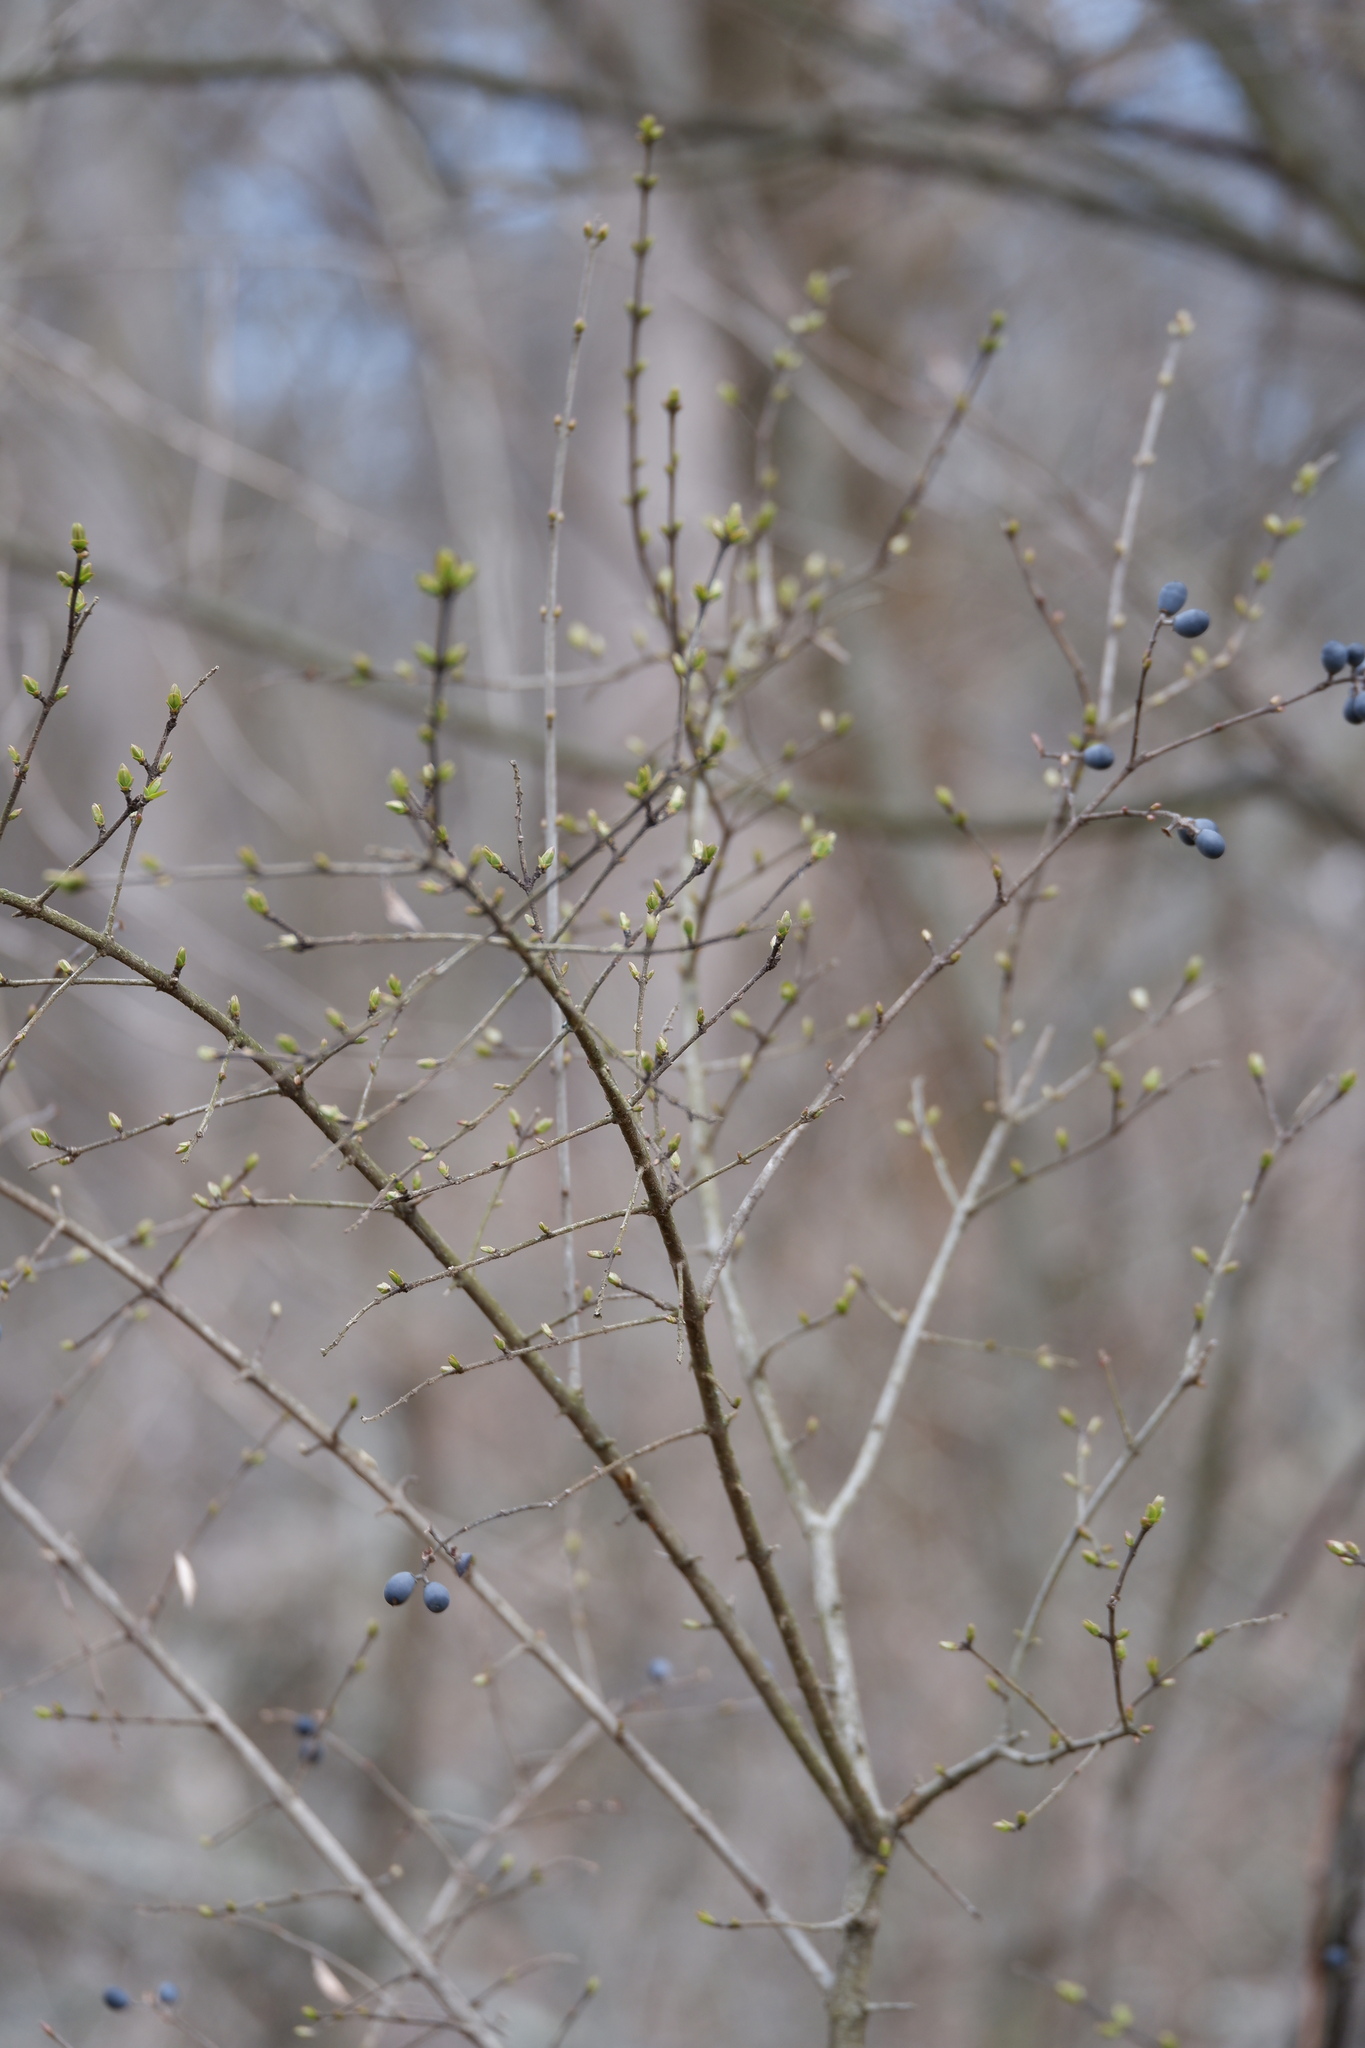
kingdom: Plantae
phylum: Tracheophyta
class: Magnoliopsida
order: Lamiales
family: Oleaceae
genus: Ligustrum
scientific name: Ligustrum obtusifolium
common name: Border privet
